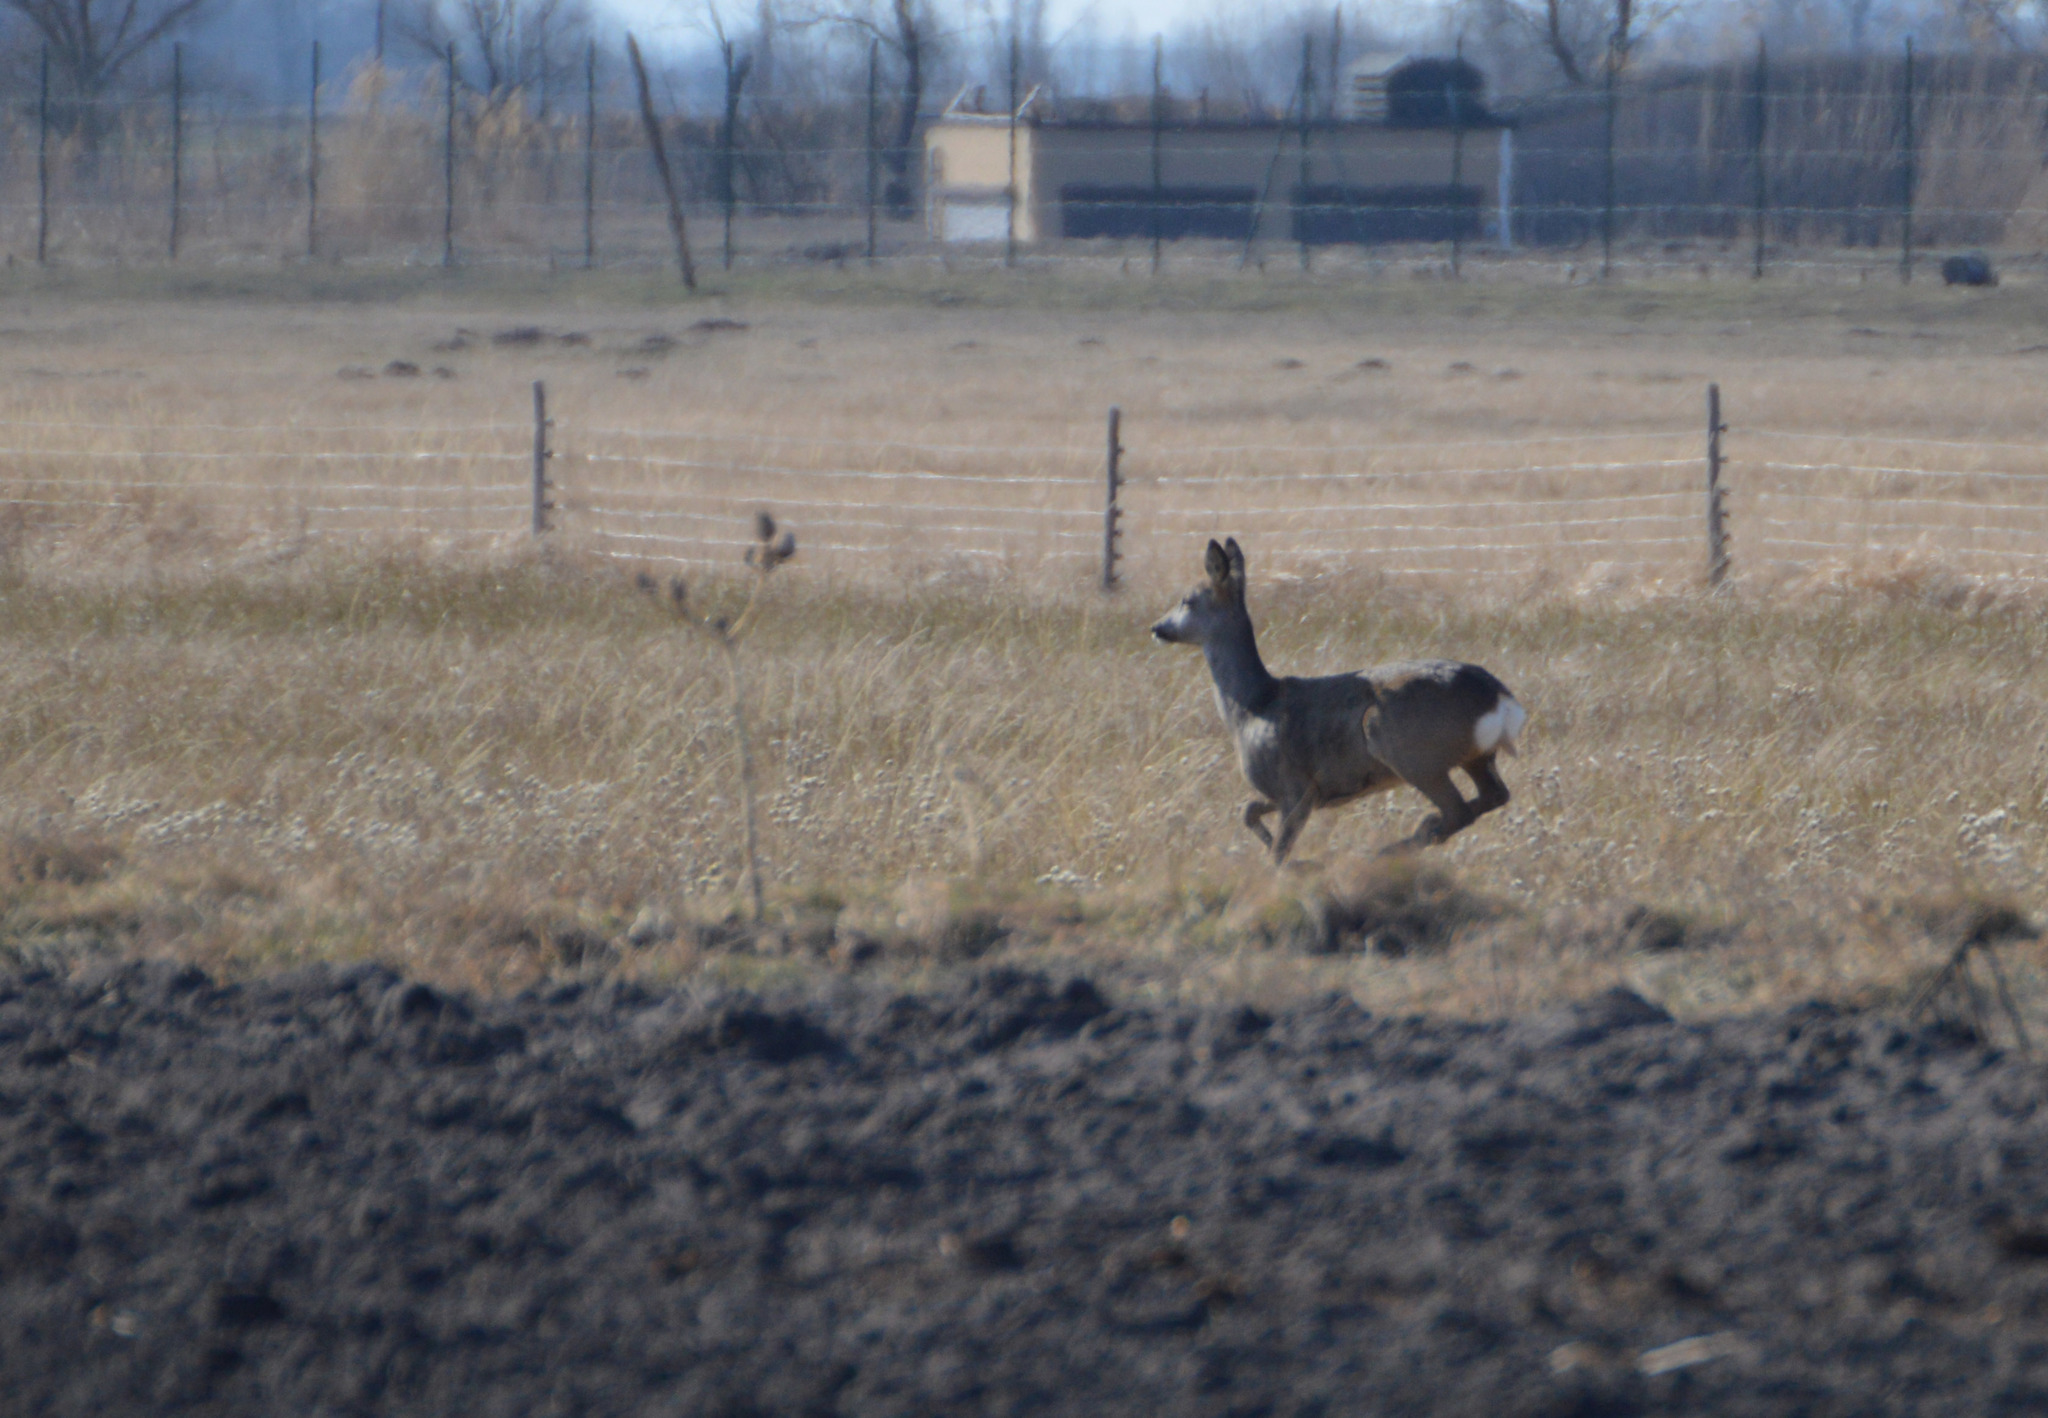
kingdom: Animalia
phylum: Chordata
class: Mammalia
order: Artiodactyla
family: Cervidae
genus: Capreolus
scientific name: Capreolus capreolus
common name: Western roe deer
